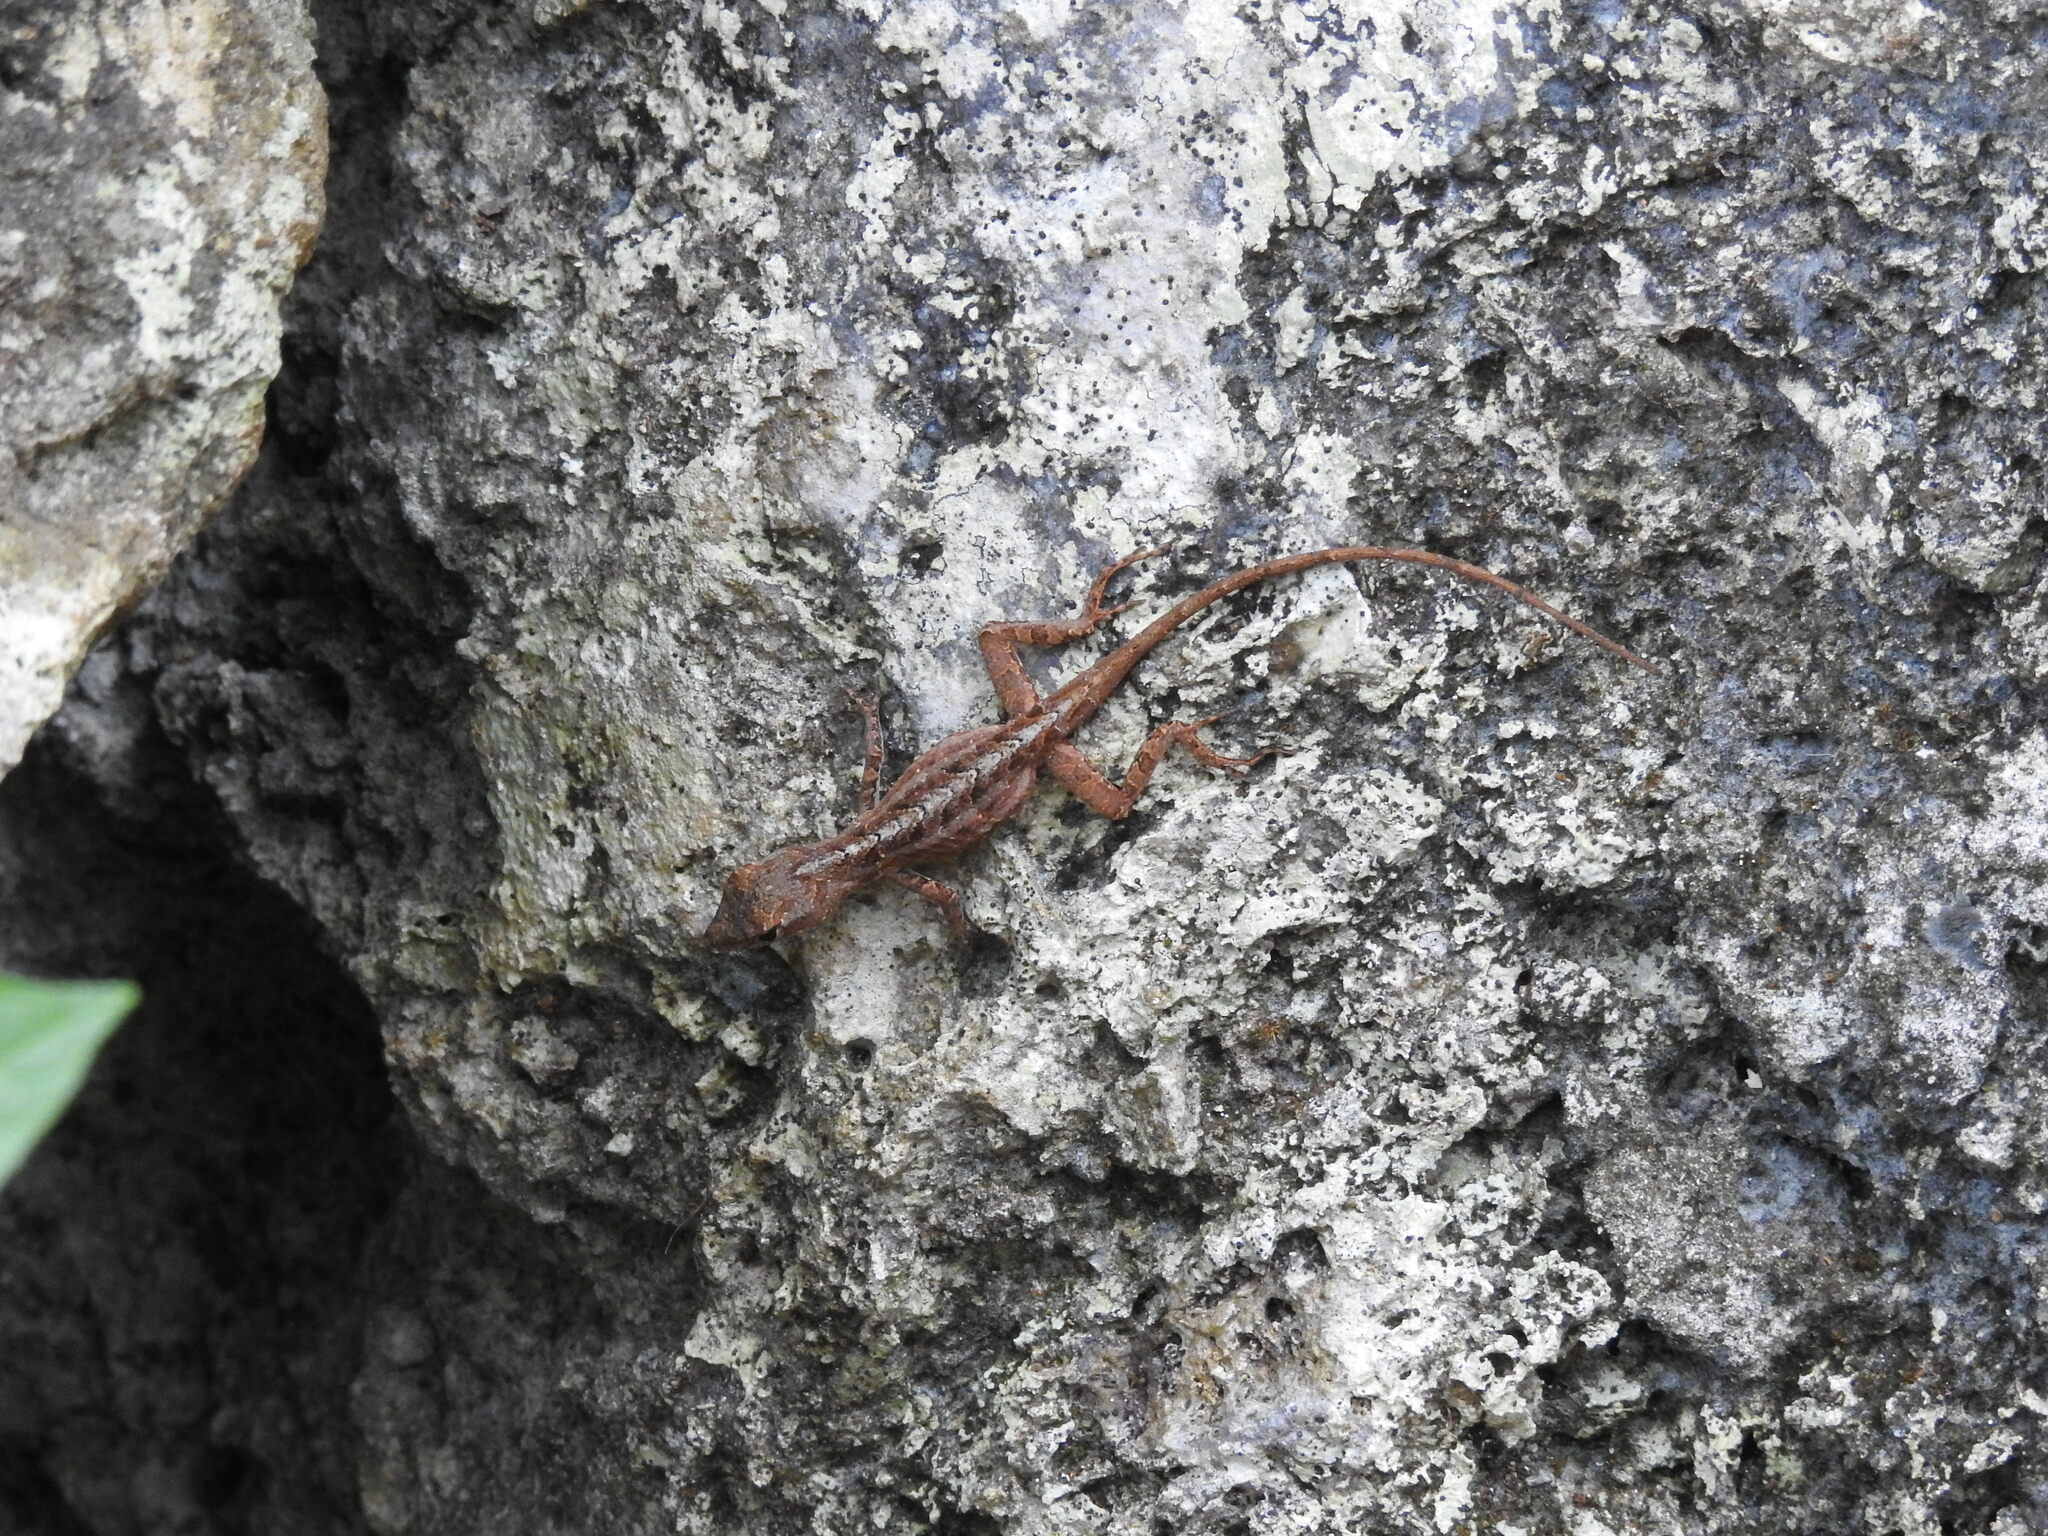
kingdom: Animalia
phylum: Chordata
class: Squamata
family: Dactyloidae
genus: Anolis
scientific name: Anolis sagrei
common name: Brown anole
